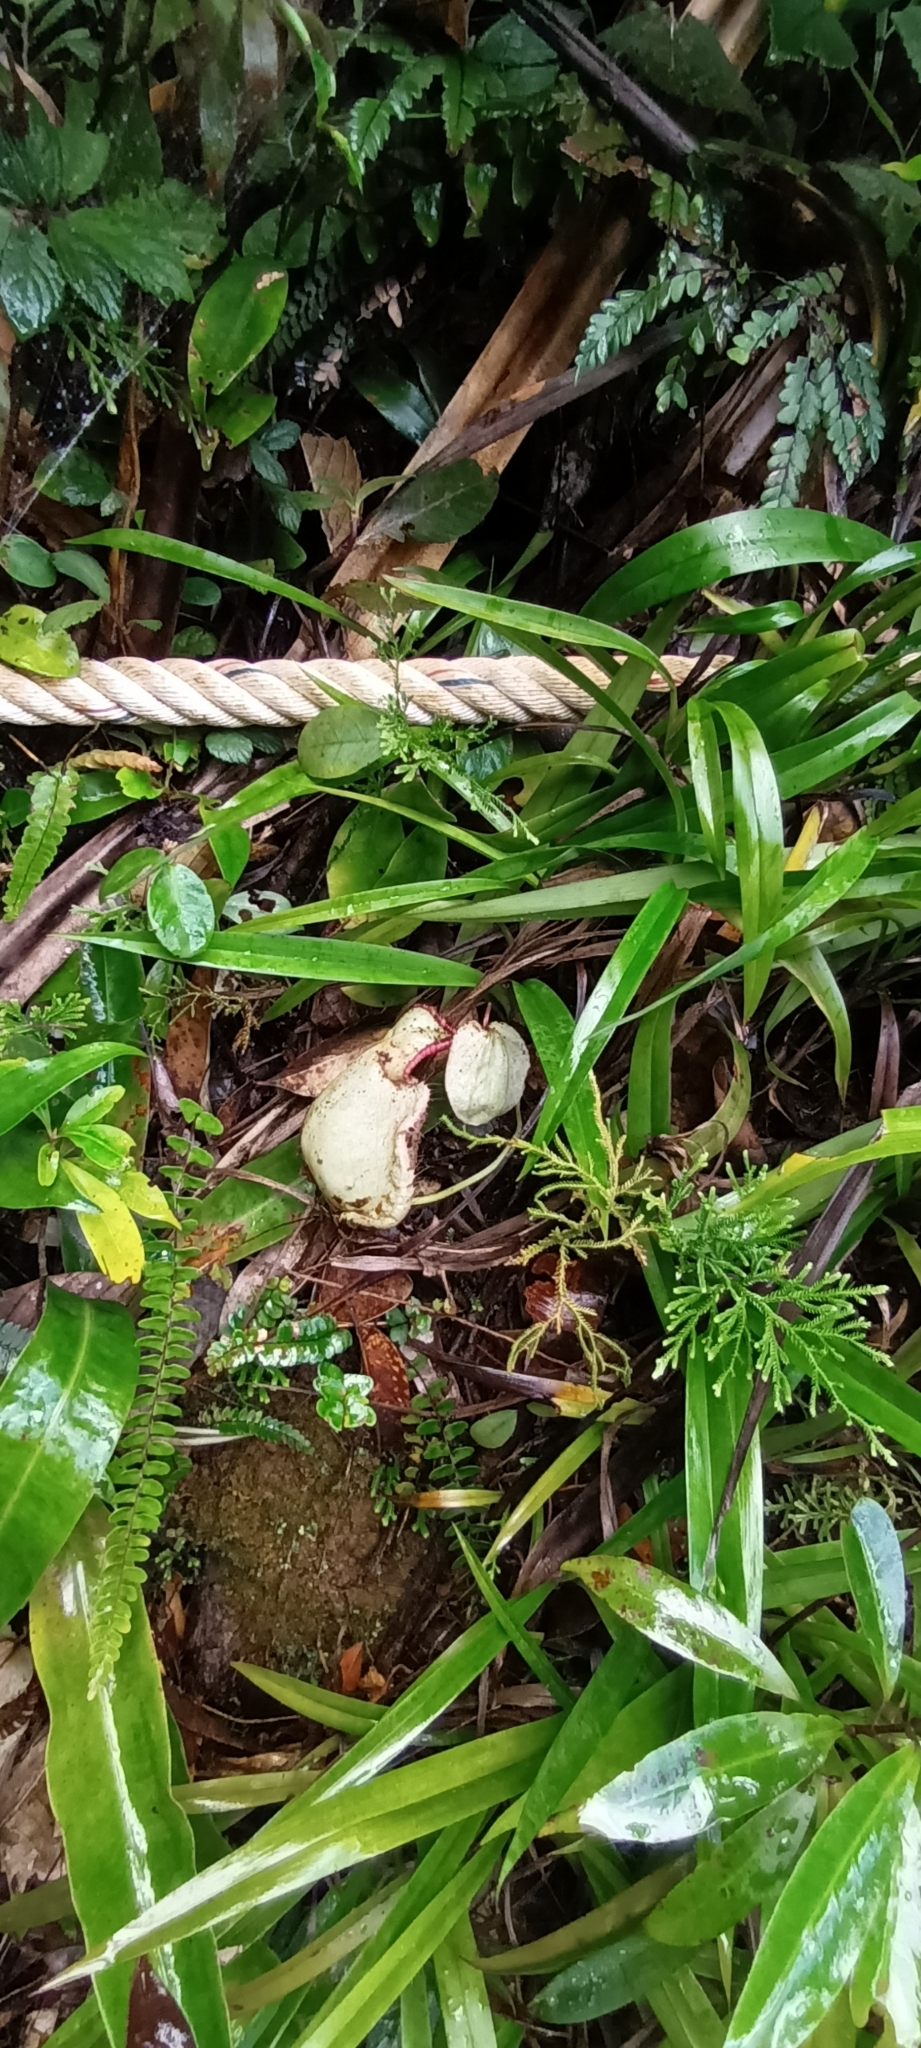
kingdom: Plantae
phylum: Tracheophyta
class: Magnoliopsida
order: Caryophyllales
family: Nepenthaceae
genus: Nepenthes
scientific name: Nepenthes rafflesiana
